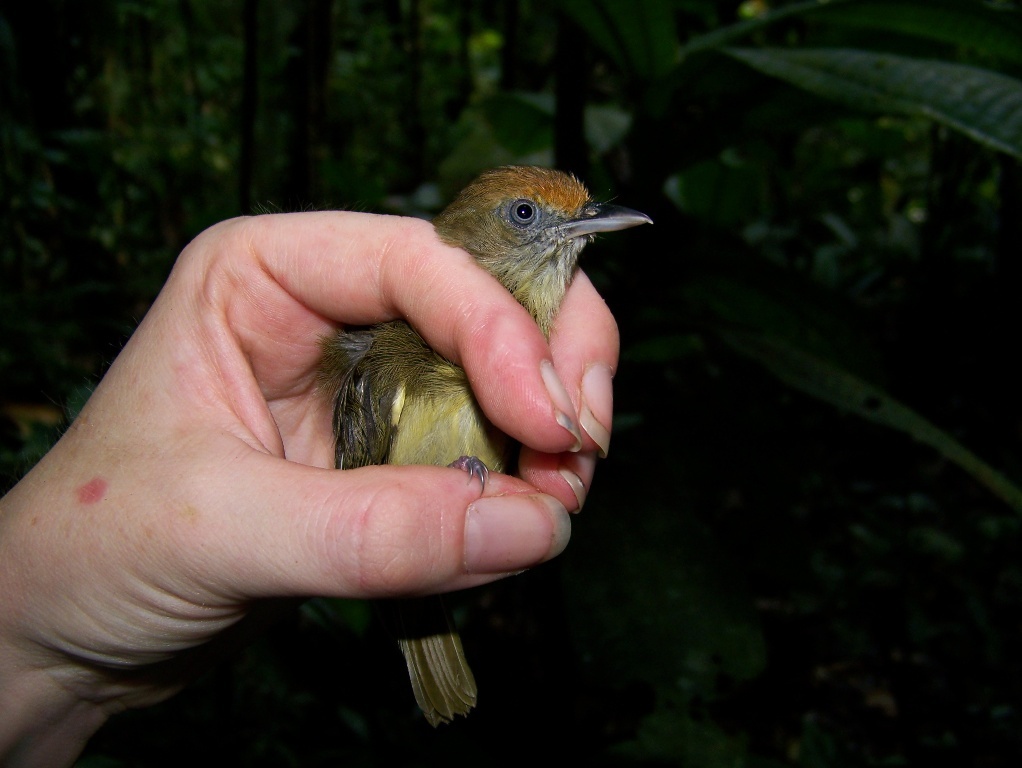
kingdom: Animalia
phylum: Chordata
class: Aves
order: Passeriformes
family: Vireonidae
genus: Hylophilus
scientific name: Hylophilus ochraceiceps
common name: Tawny-crowned greenlet
